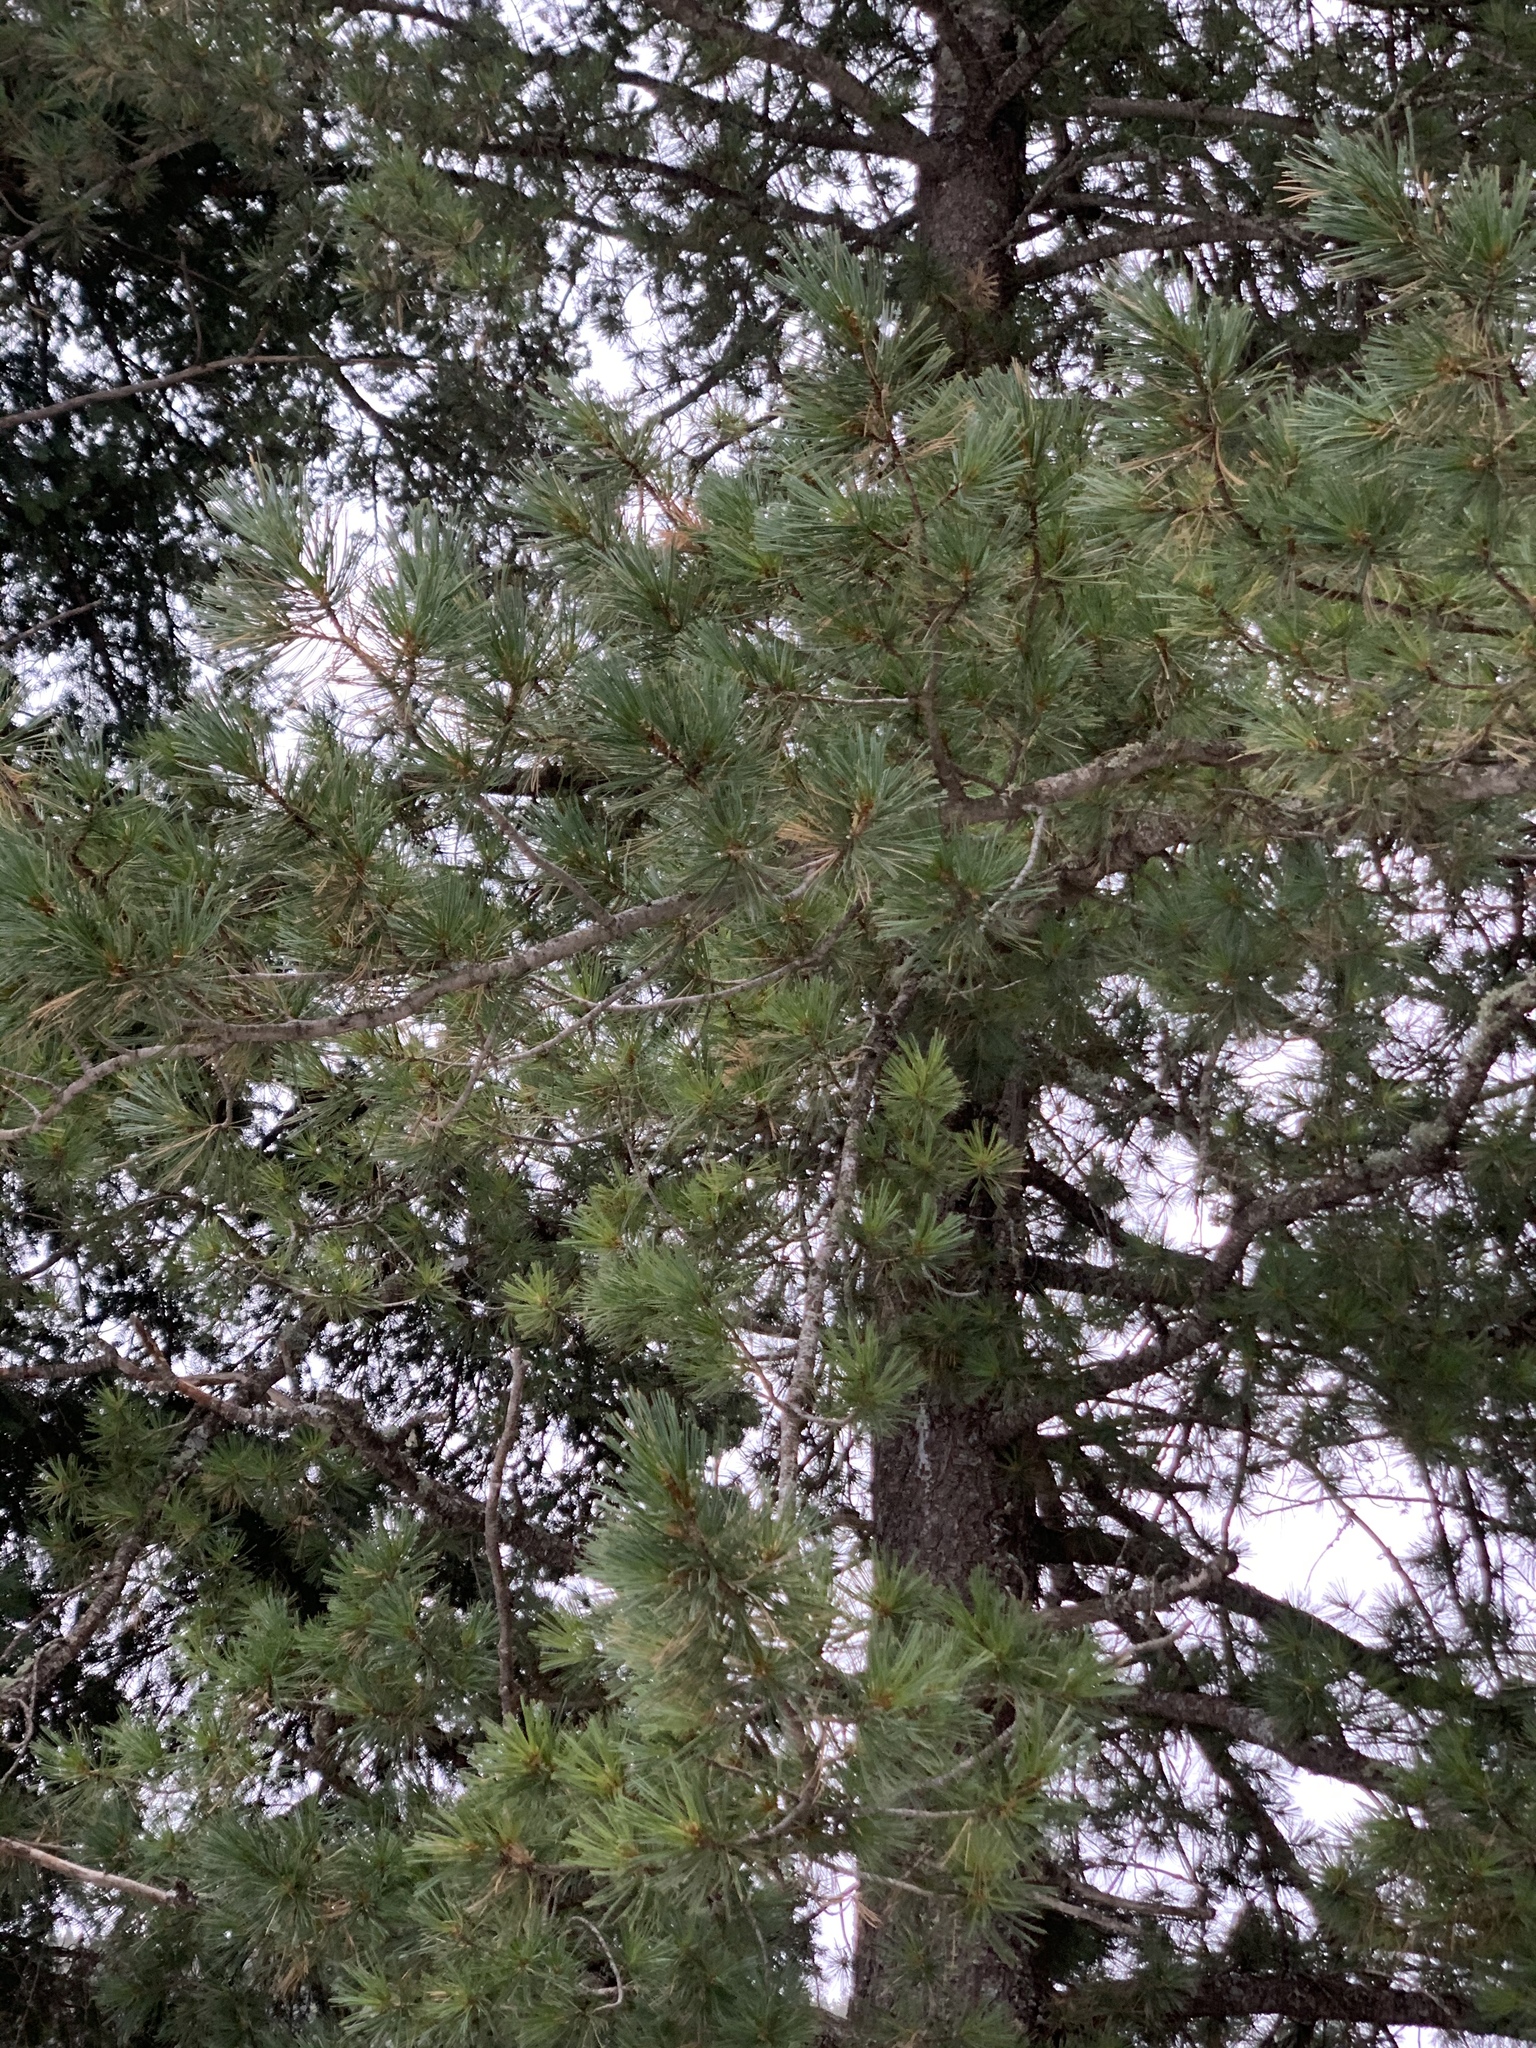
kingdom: Plantae
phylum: Tracheophyta
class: Pinopsida
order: Pinales
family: Pinaceae
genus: Pinus
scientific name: Pinus strobiformis
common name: Southwestern white pine
